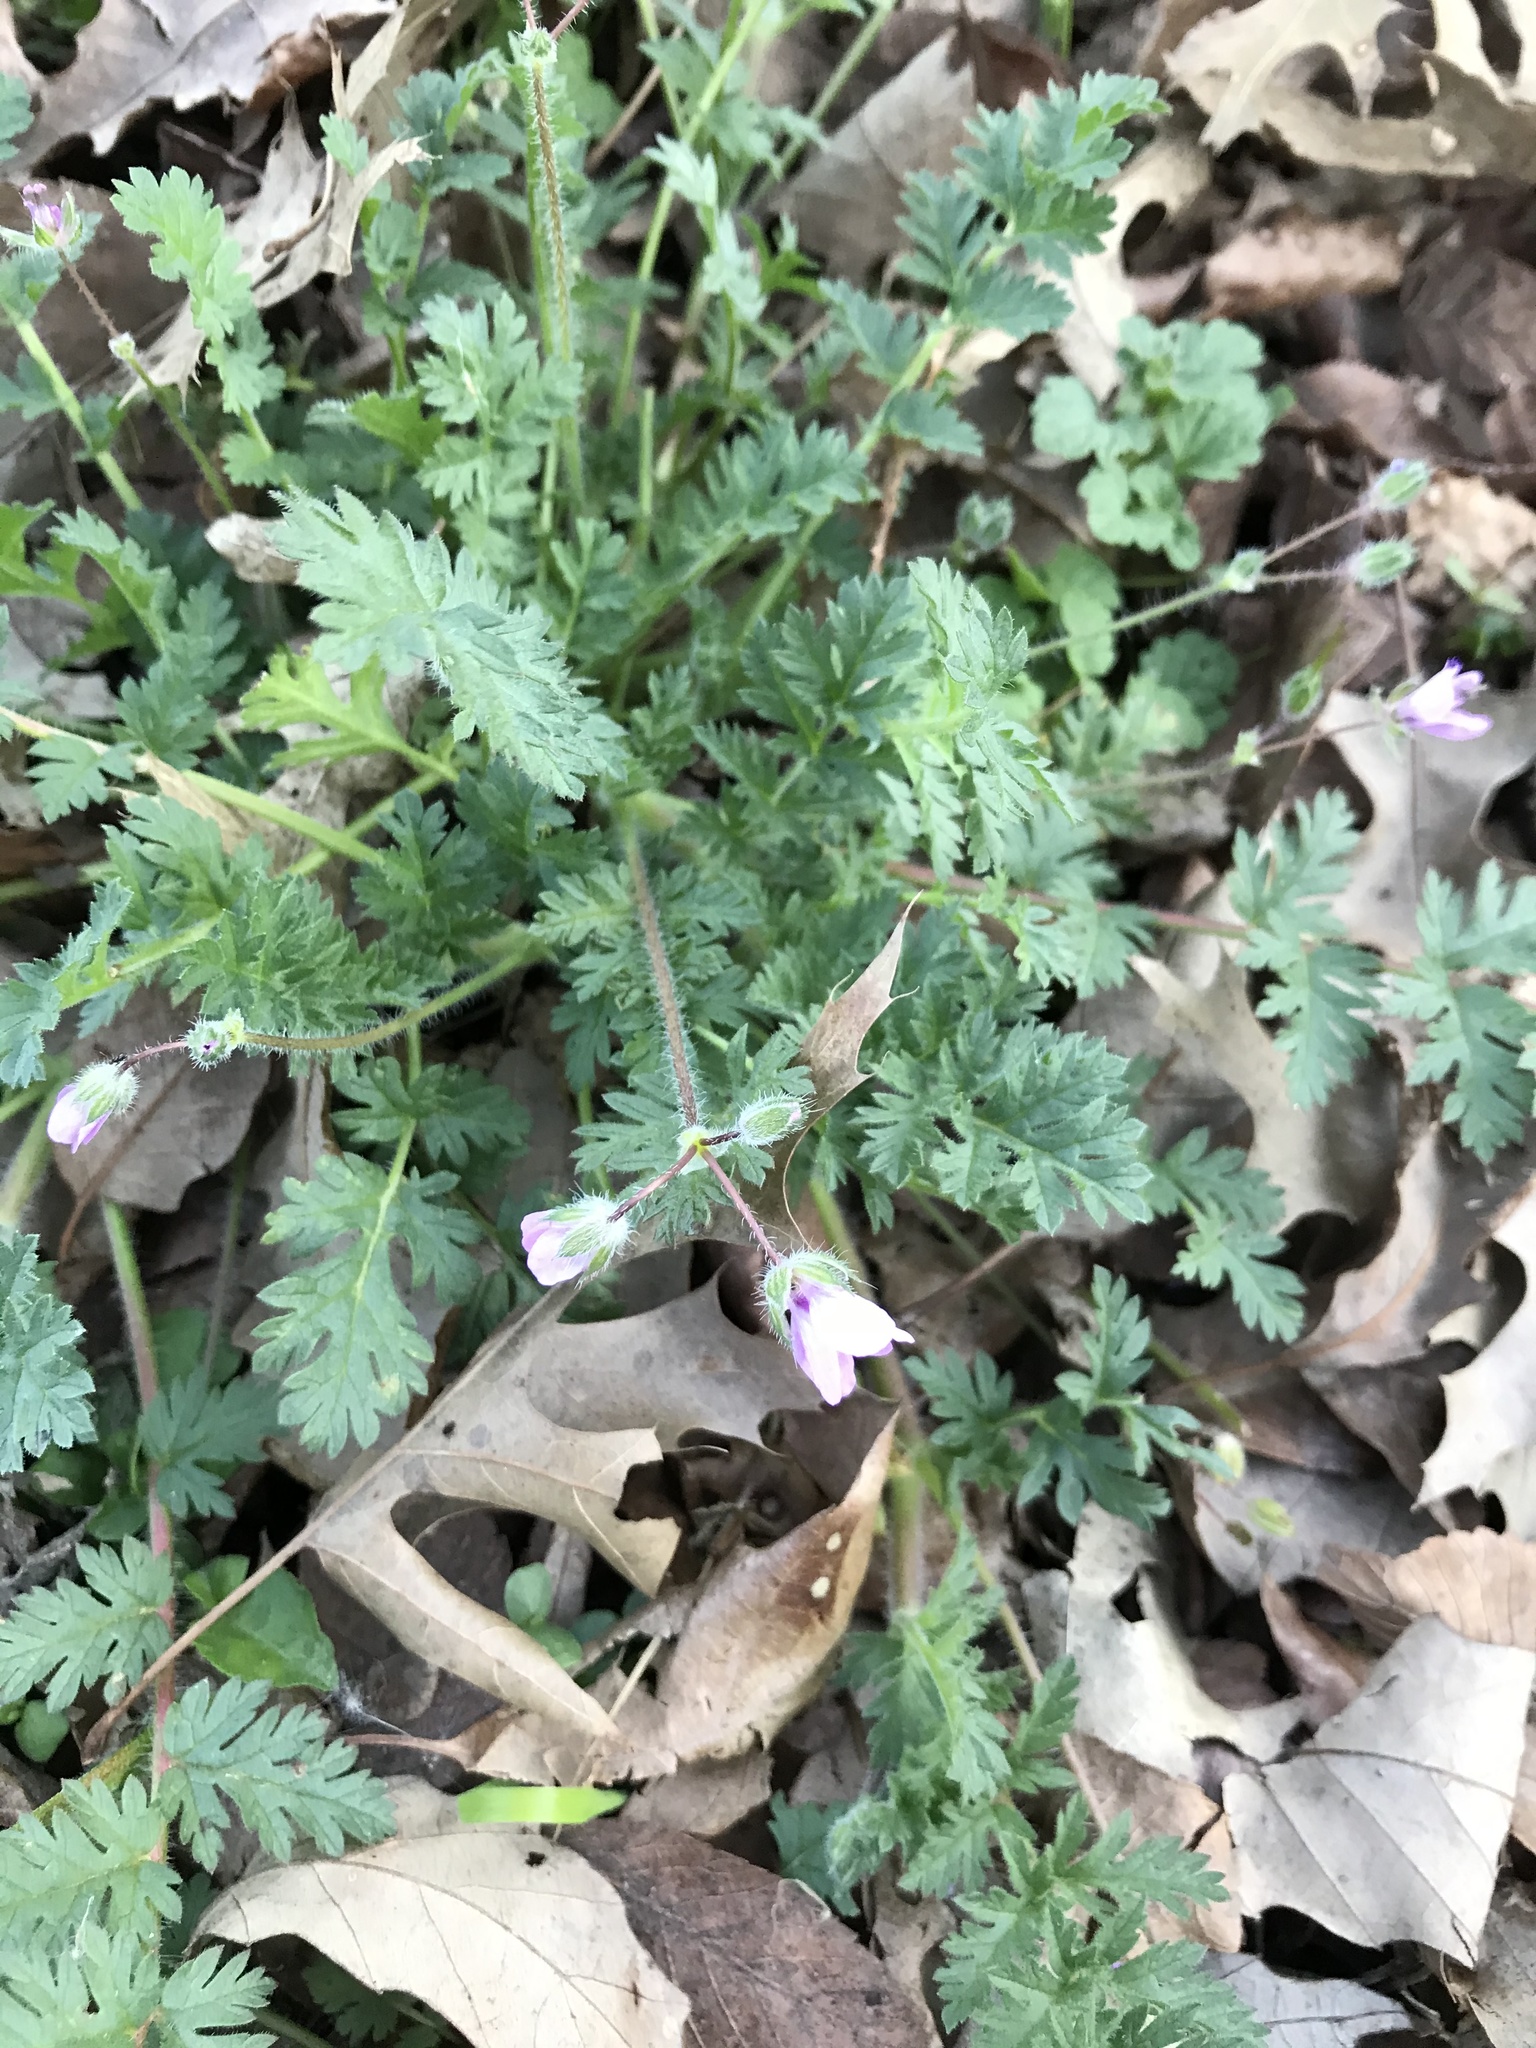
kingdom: Plantae
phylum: Tracheophyta
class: Magnoliopsida
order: Geraniales
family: Geraniaceae
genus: Erodium
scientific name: Erodium cicutarium
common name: Common stork's-bill
